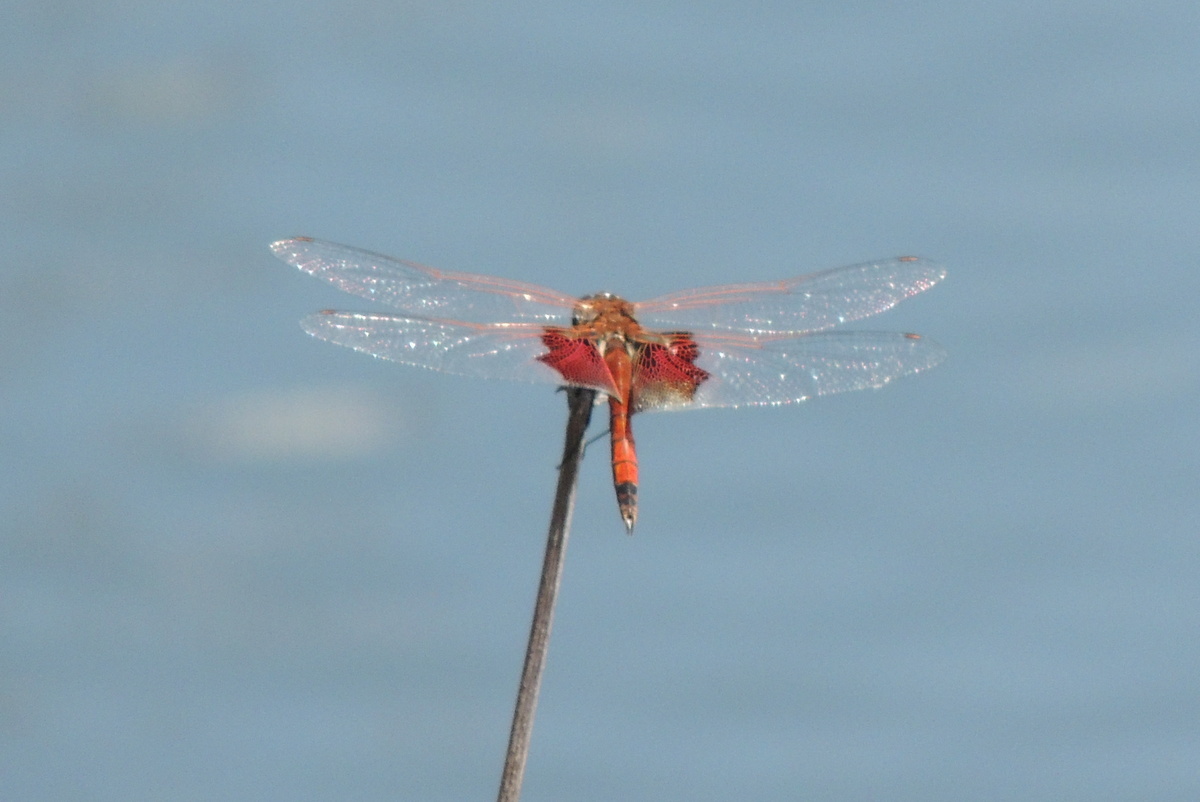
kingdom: Animalia
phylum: Arthropoda
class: Insecta
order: Odonata
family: Libellulidae
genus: Tramea
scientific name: Tramea carolina
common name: Carolina saddlebags
